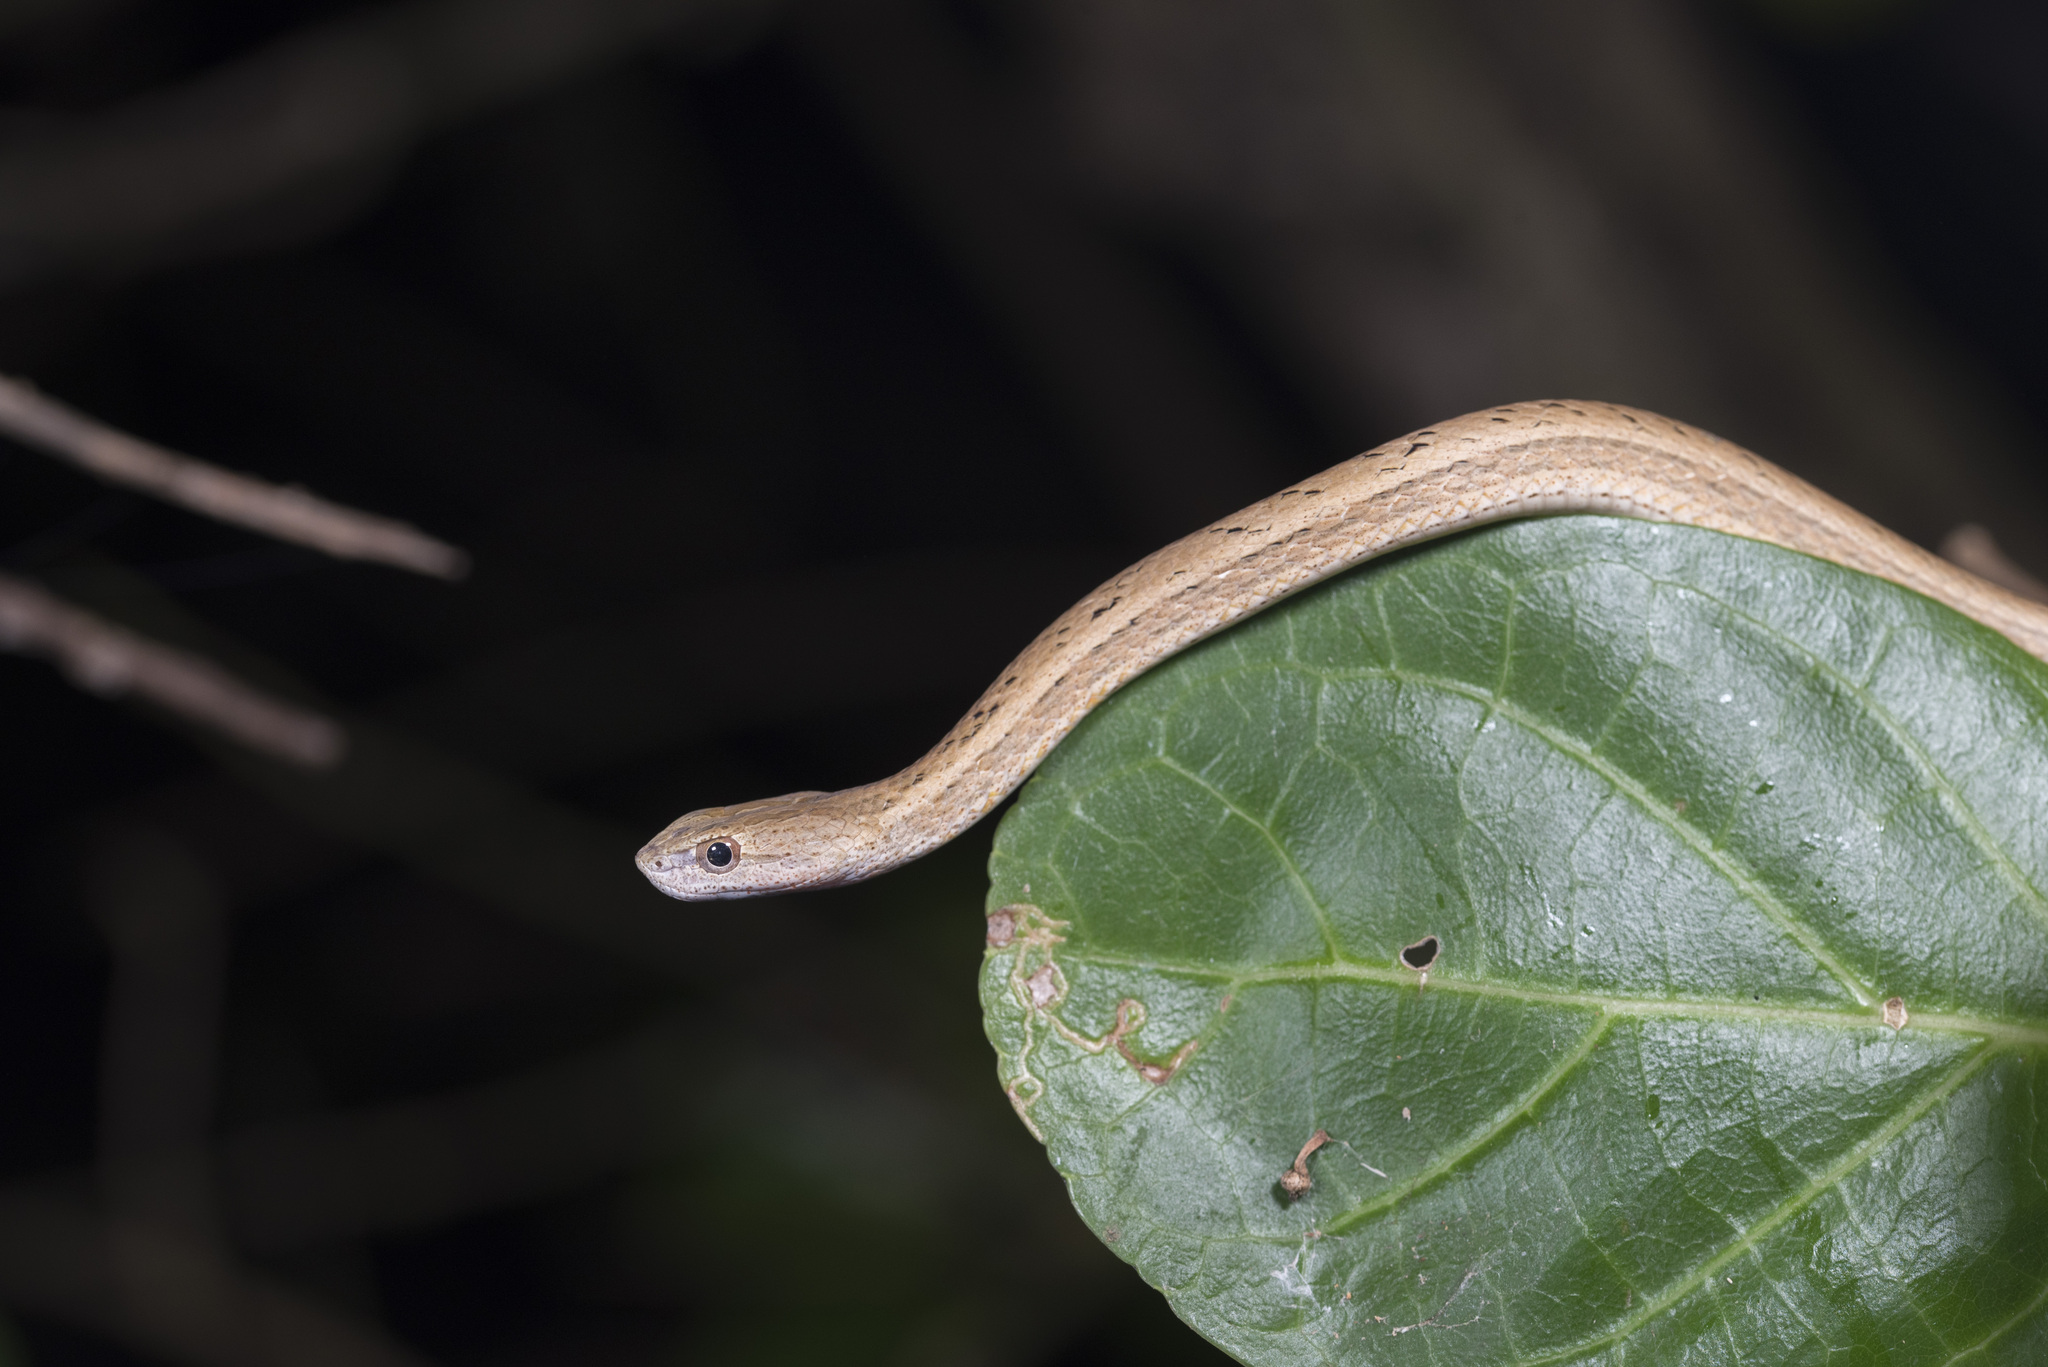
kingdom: Animalia
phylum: Chordata
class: Squamata
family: Pseudaspididae
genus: Psammodynastes
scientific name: Psammodynastes pulverulentus
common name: Common mock viper
